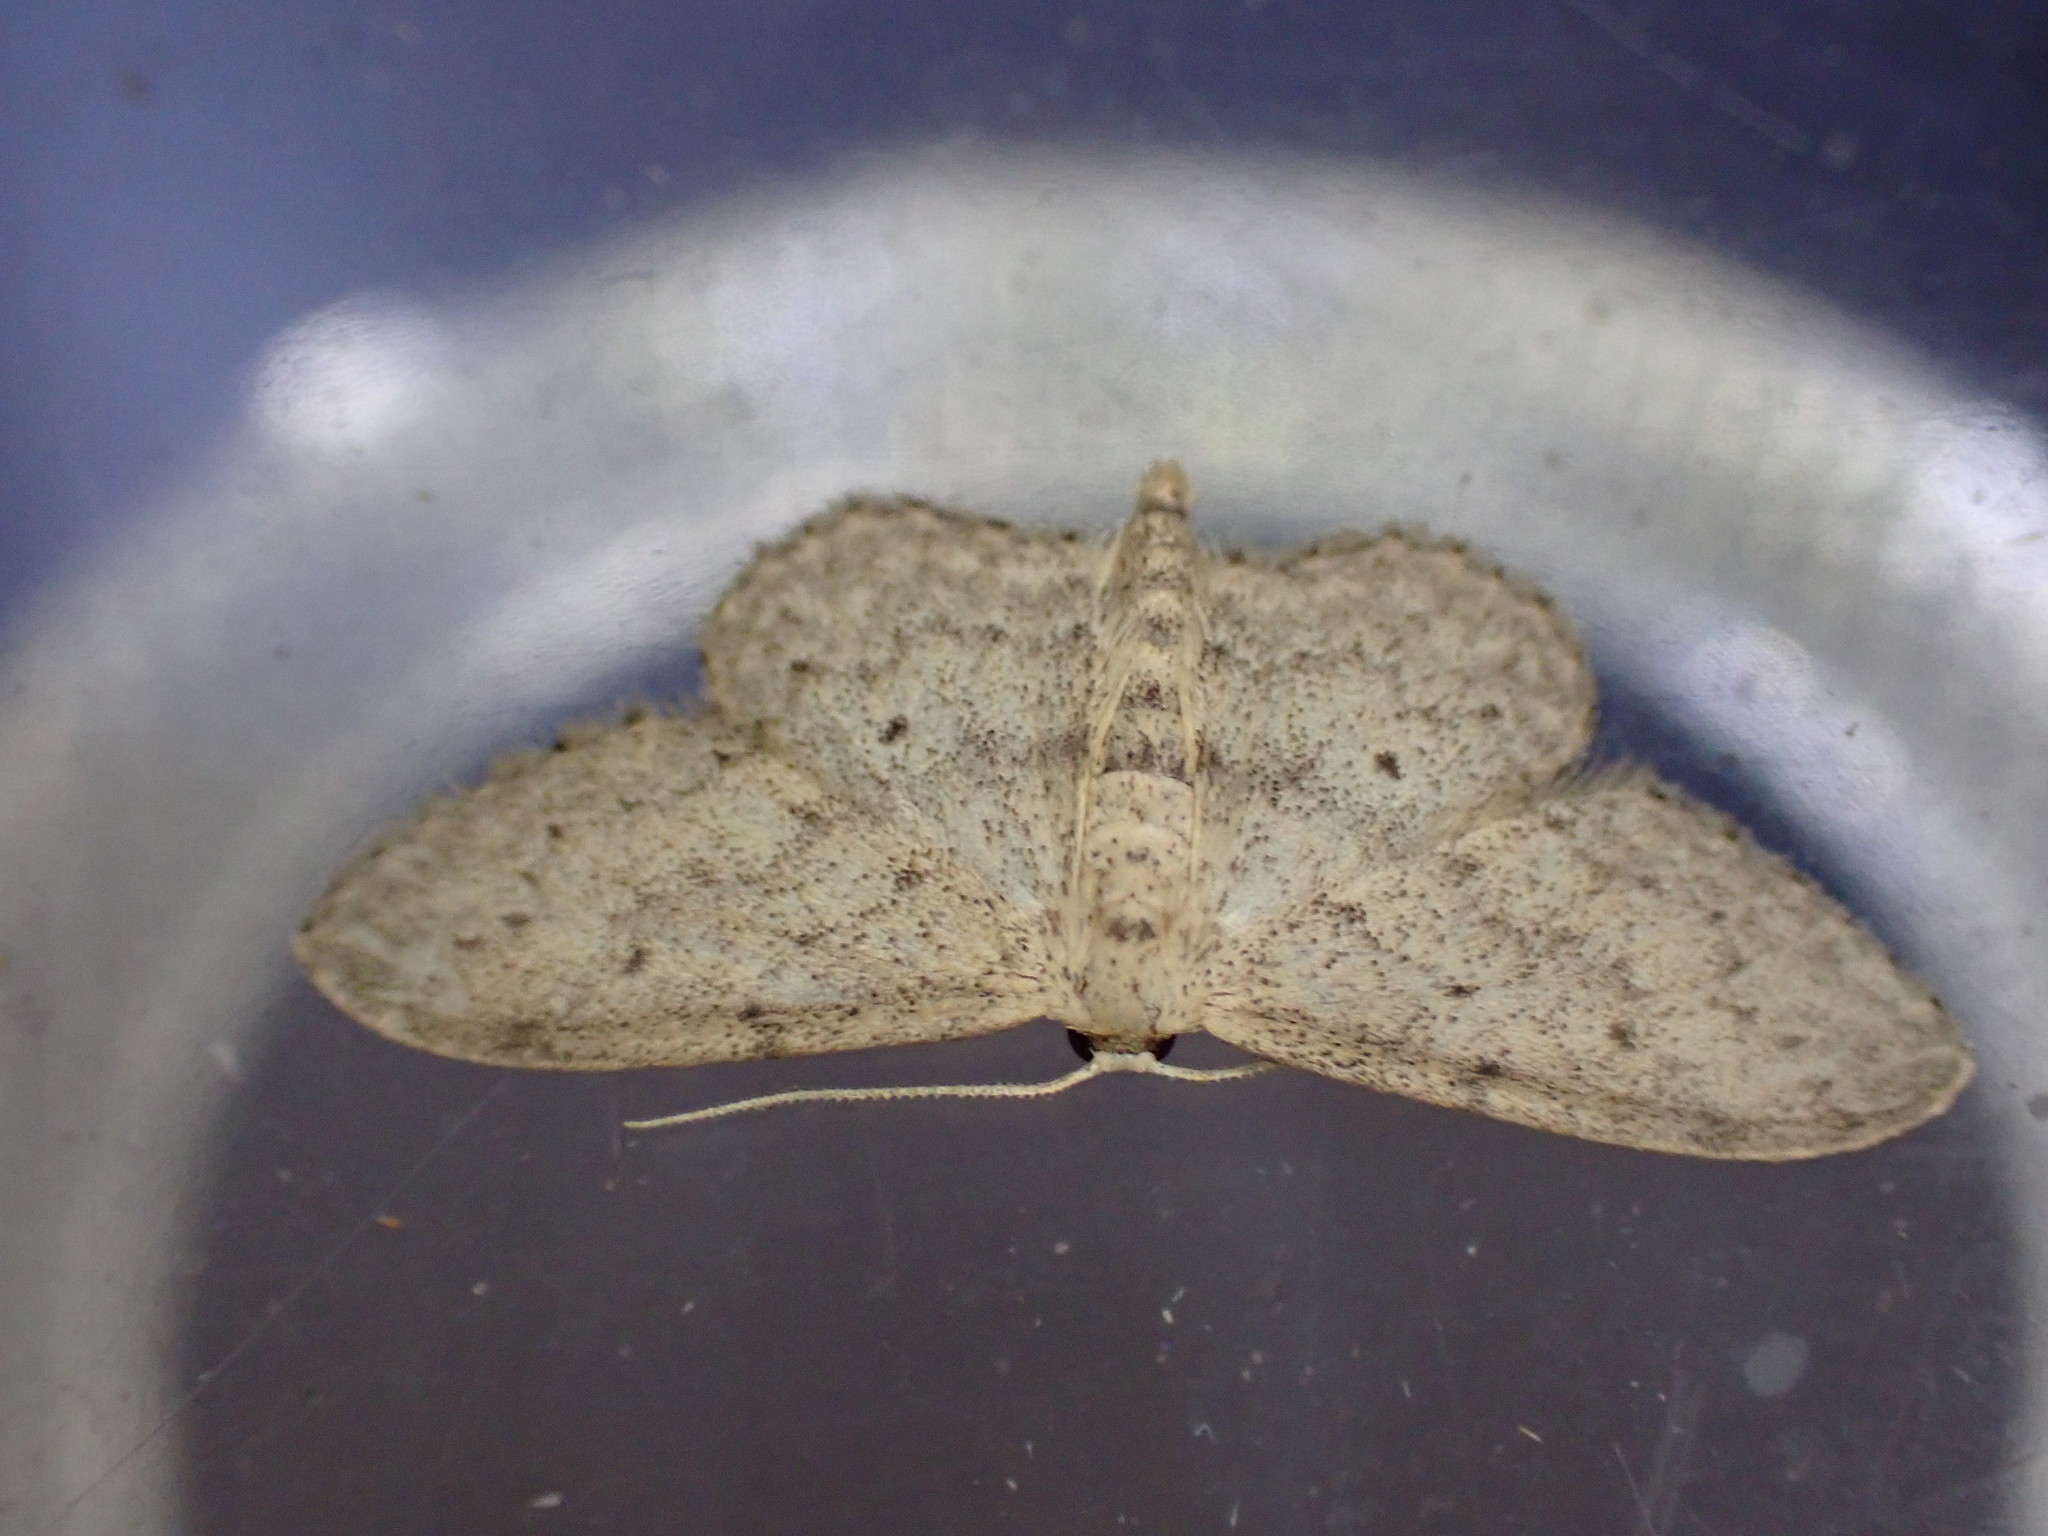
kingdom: Animalia
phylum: Arthropoda
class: Insecta
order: Lepidoptera
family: Geometridae
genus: Idaea
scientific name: Idaea seriata
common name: Small dusty wave
